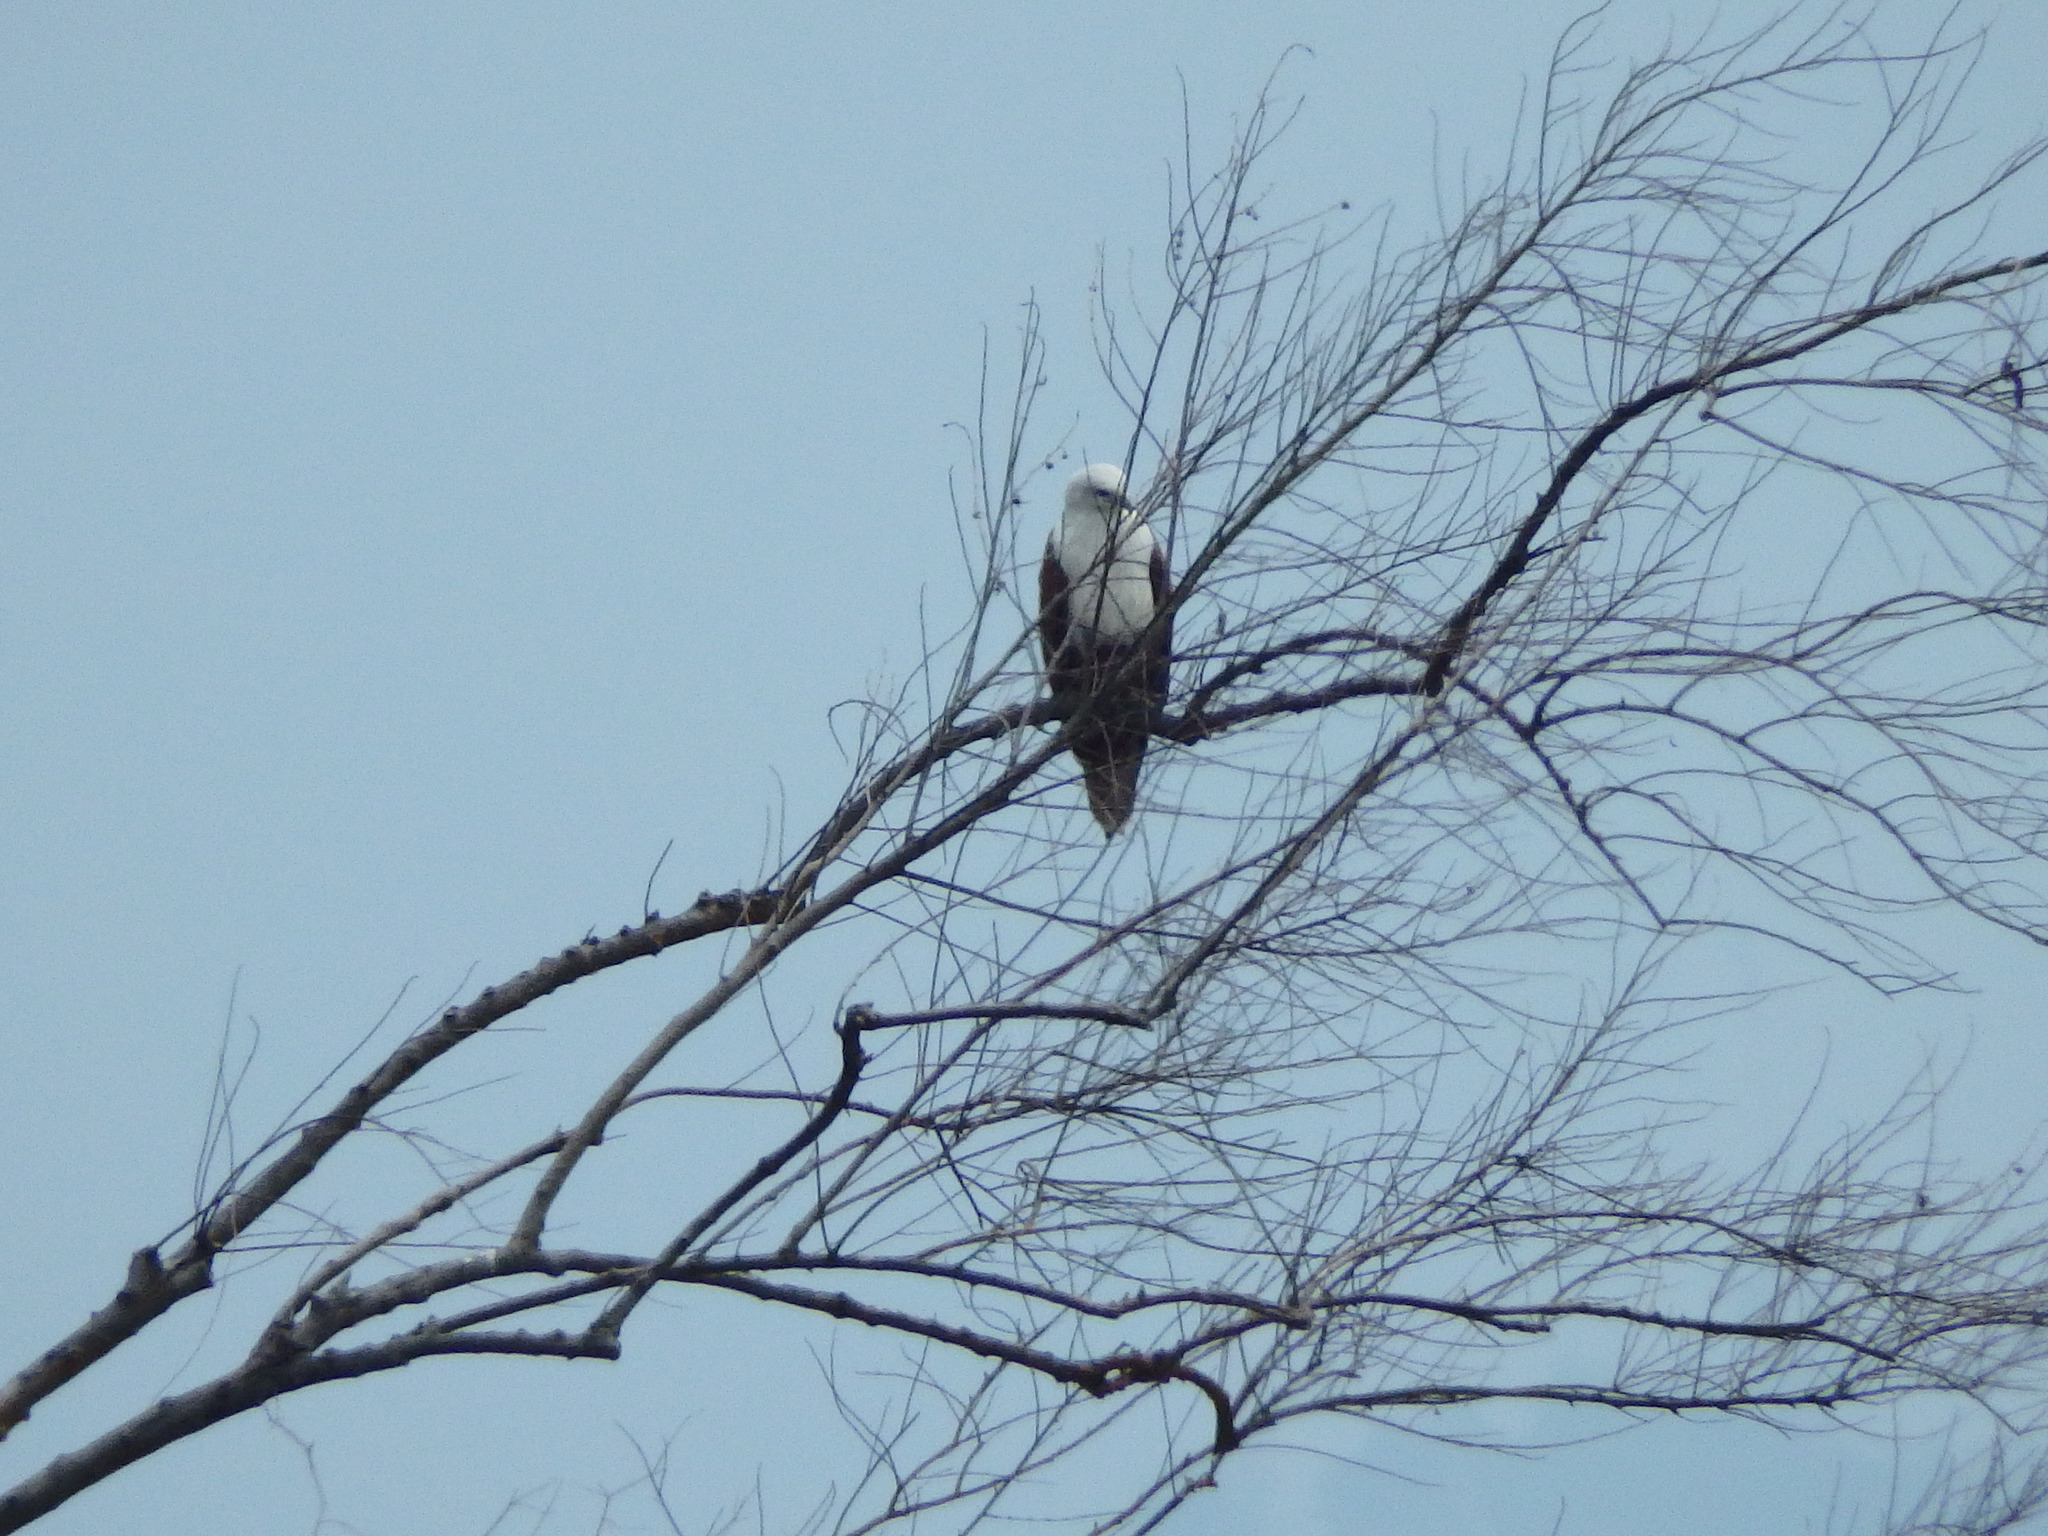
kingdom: Animalia
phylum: Chordata
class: Aves
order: Accipitriformes
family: Accipitridae
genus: Haliastur
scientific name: Haliastur indus
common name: Brahminy kite
